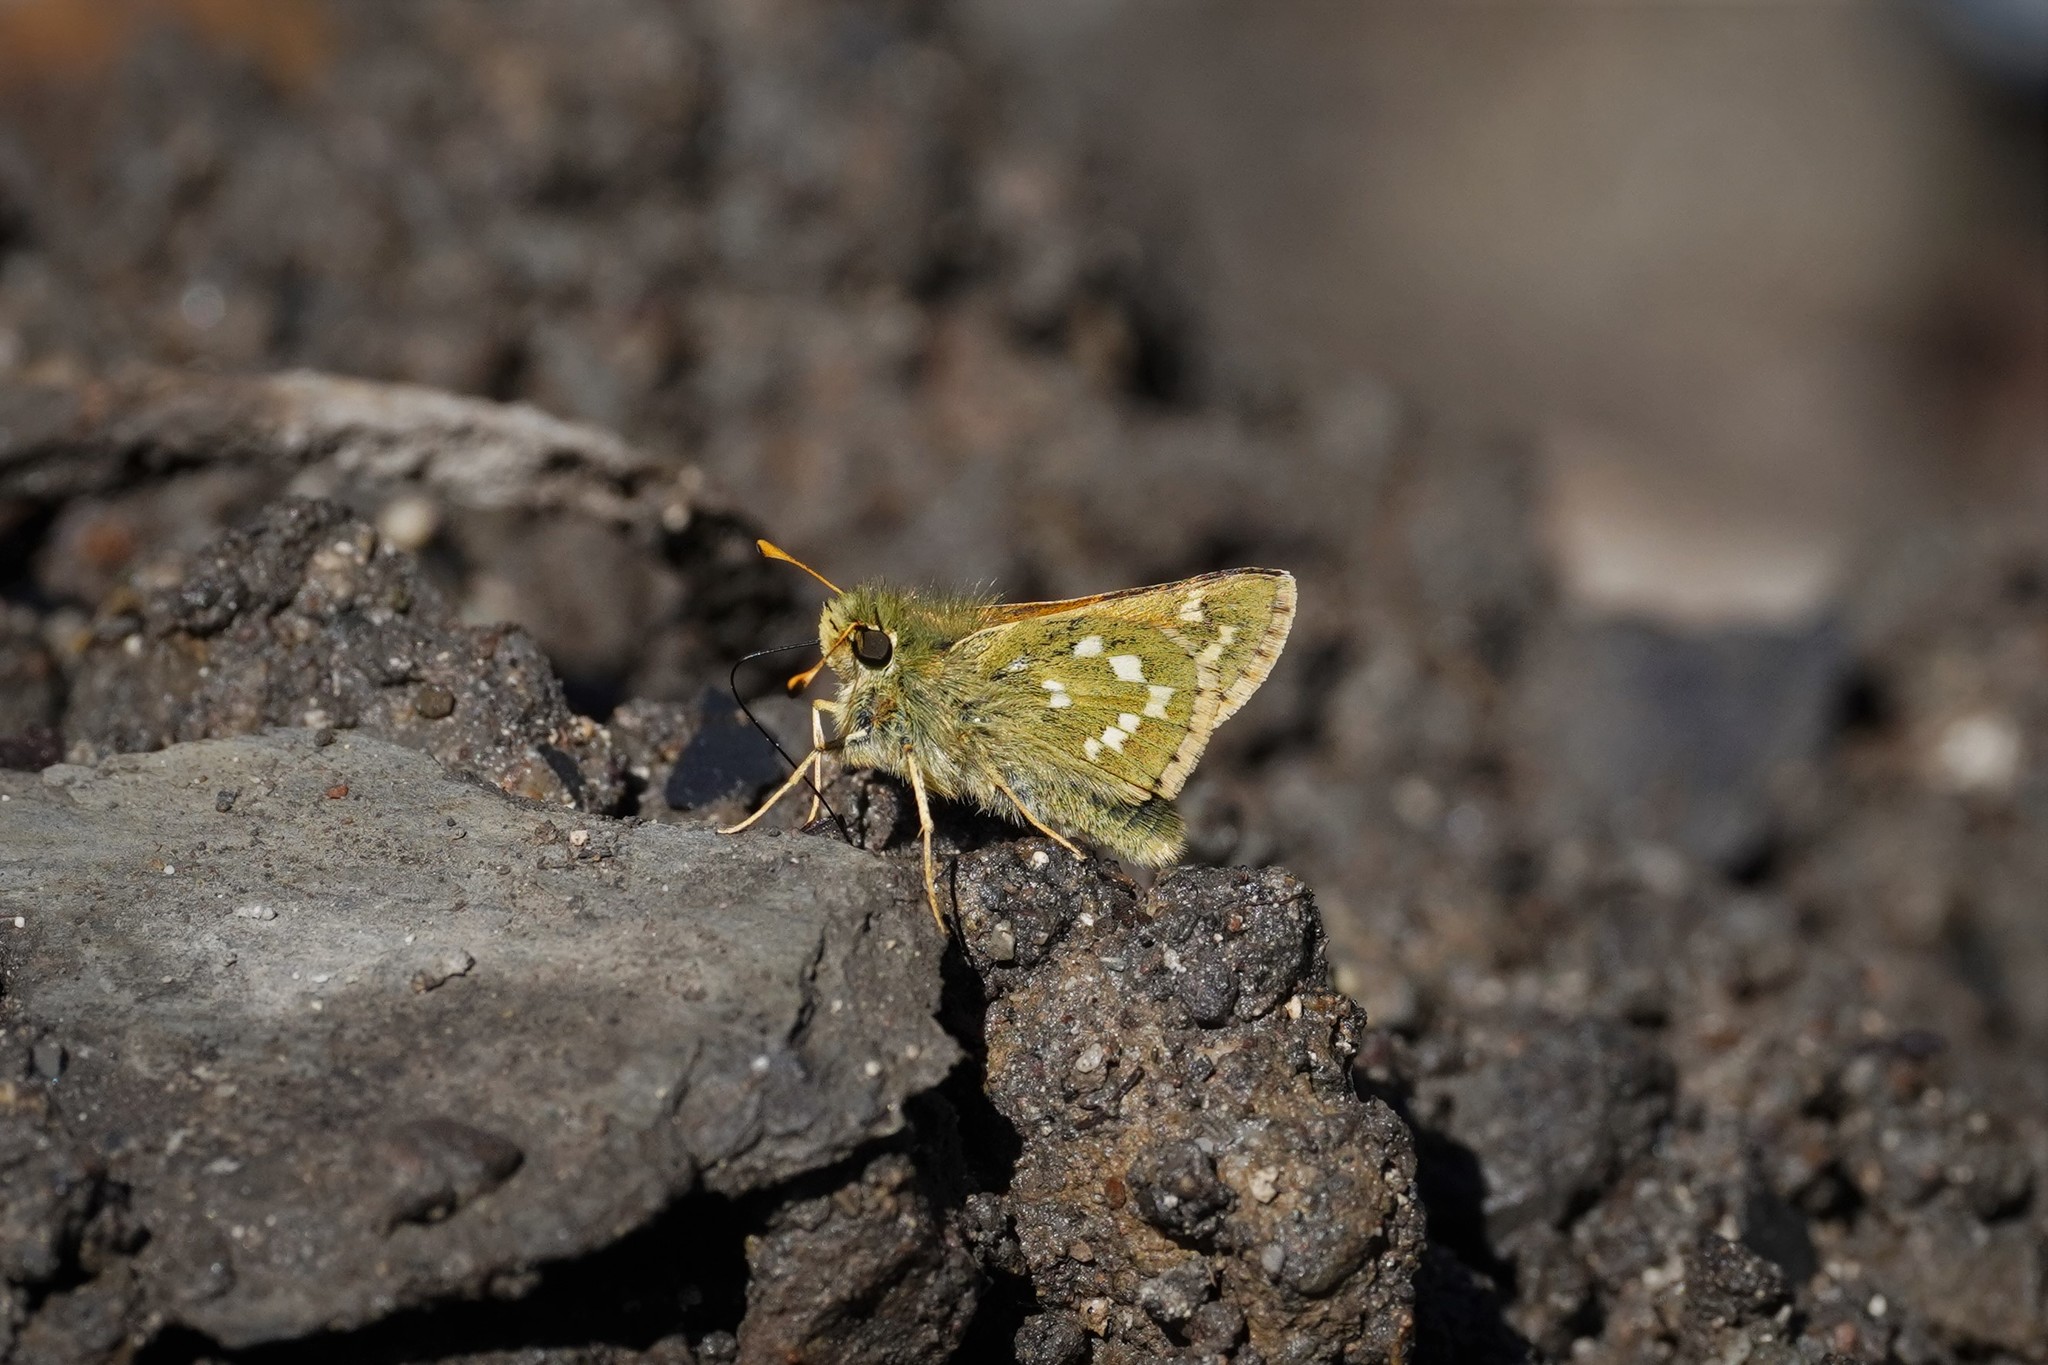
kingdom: Animalia
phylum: Arthropoda
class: Insecta
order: Lepidoptera
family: Hesperiidae
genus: Hesperia
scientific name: Hesperia comma
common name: Common branded skipper
